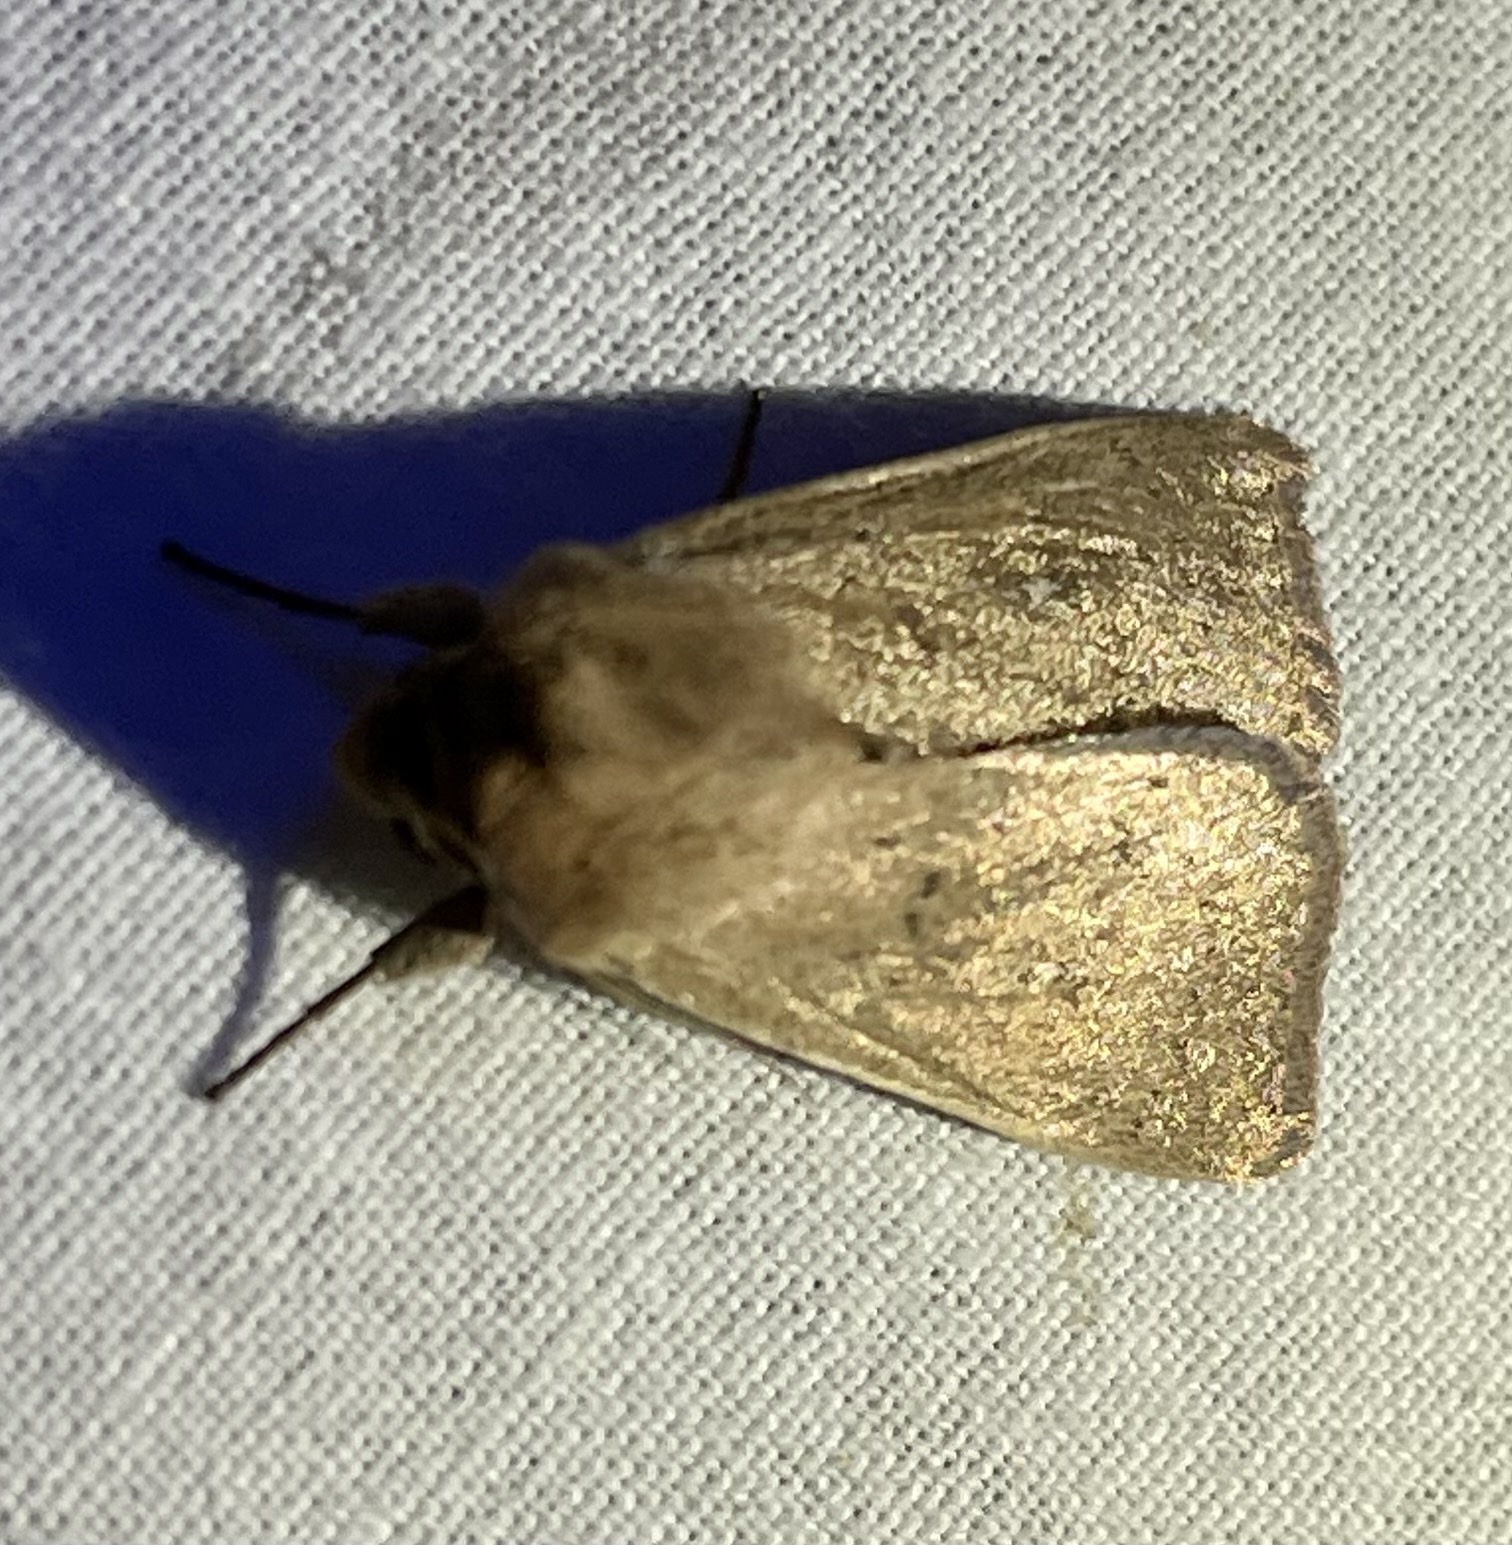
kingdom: Animalia
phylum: Arthropoda
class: Insecta
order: Lepidoptera
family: Noctuidae
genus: Mythimna
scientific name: Mythimna ferrago
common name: Clay
